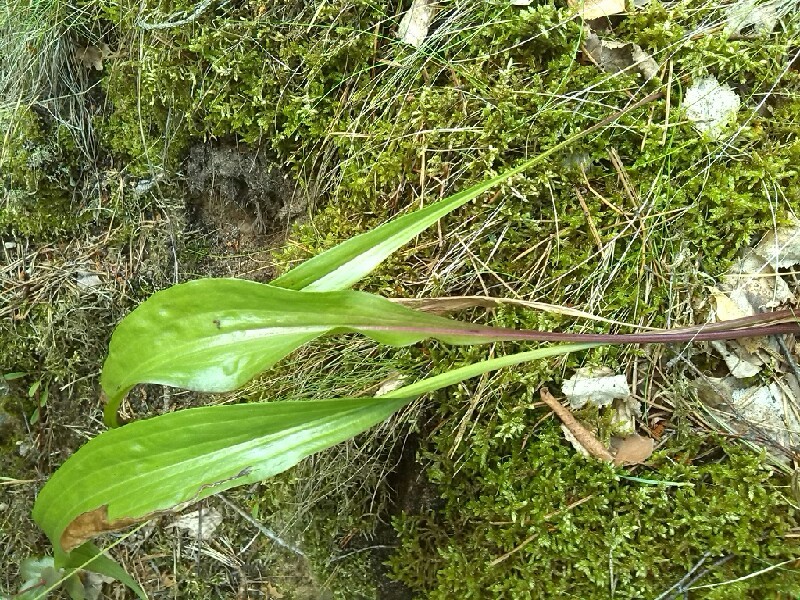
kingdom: Plantae
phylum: Tracheophyta
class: Magnoliopsida
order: Asterales
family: Asteraceae
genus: Scorzonera
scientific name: Scorzonera humilis
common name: Viper's-grass
